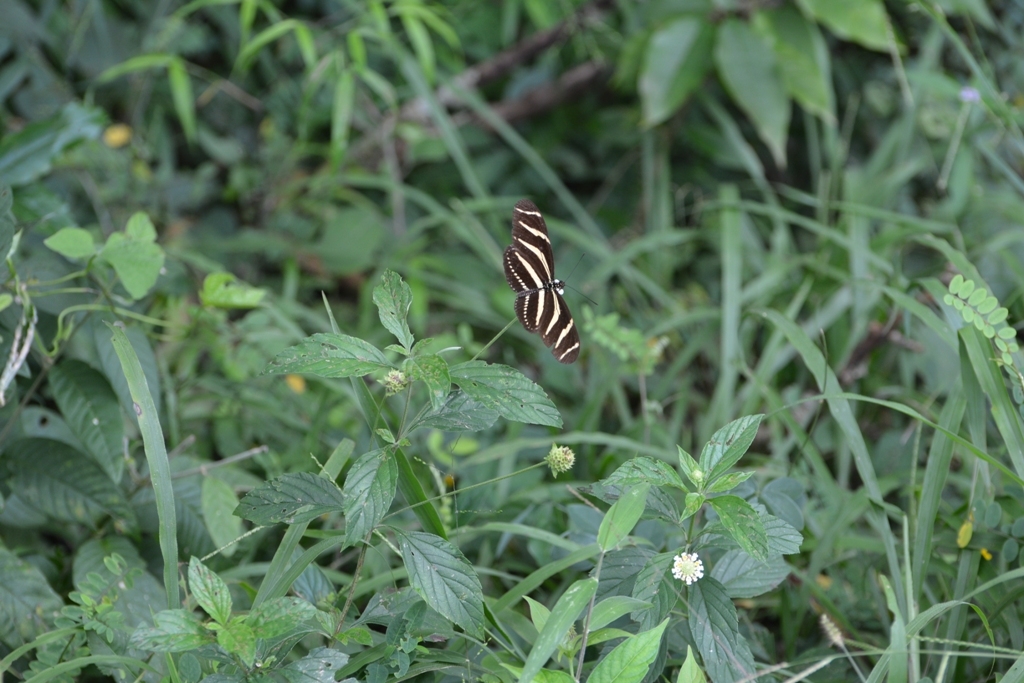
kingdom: Animalia
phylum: Arthropoda
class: Insecta
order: Lepidoptera
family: Nymphalidae
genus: Heliconius
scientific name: Heliconius charithonia
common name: Zebra long wing
